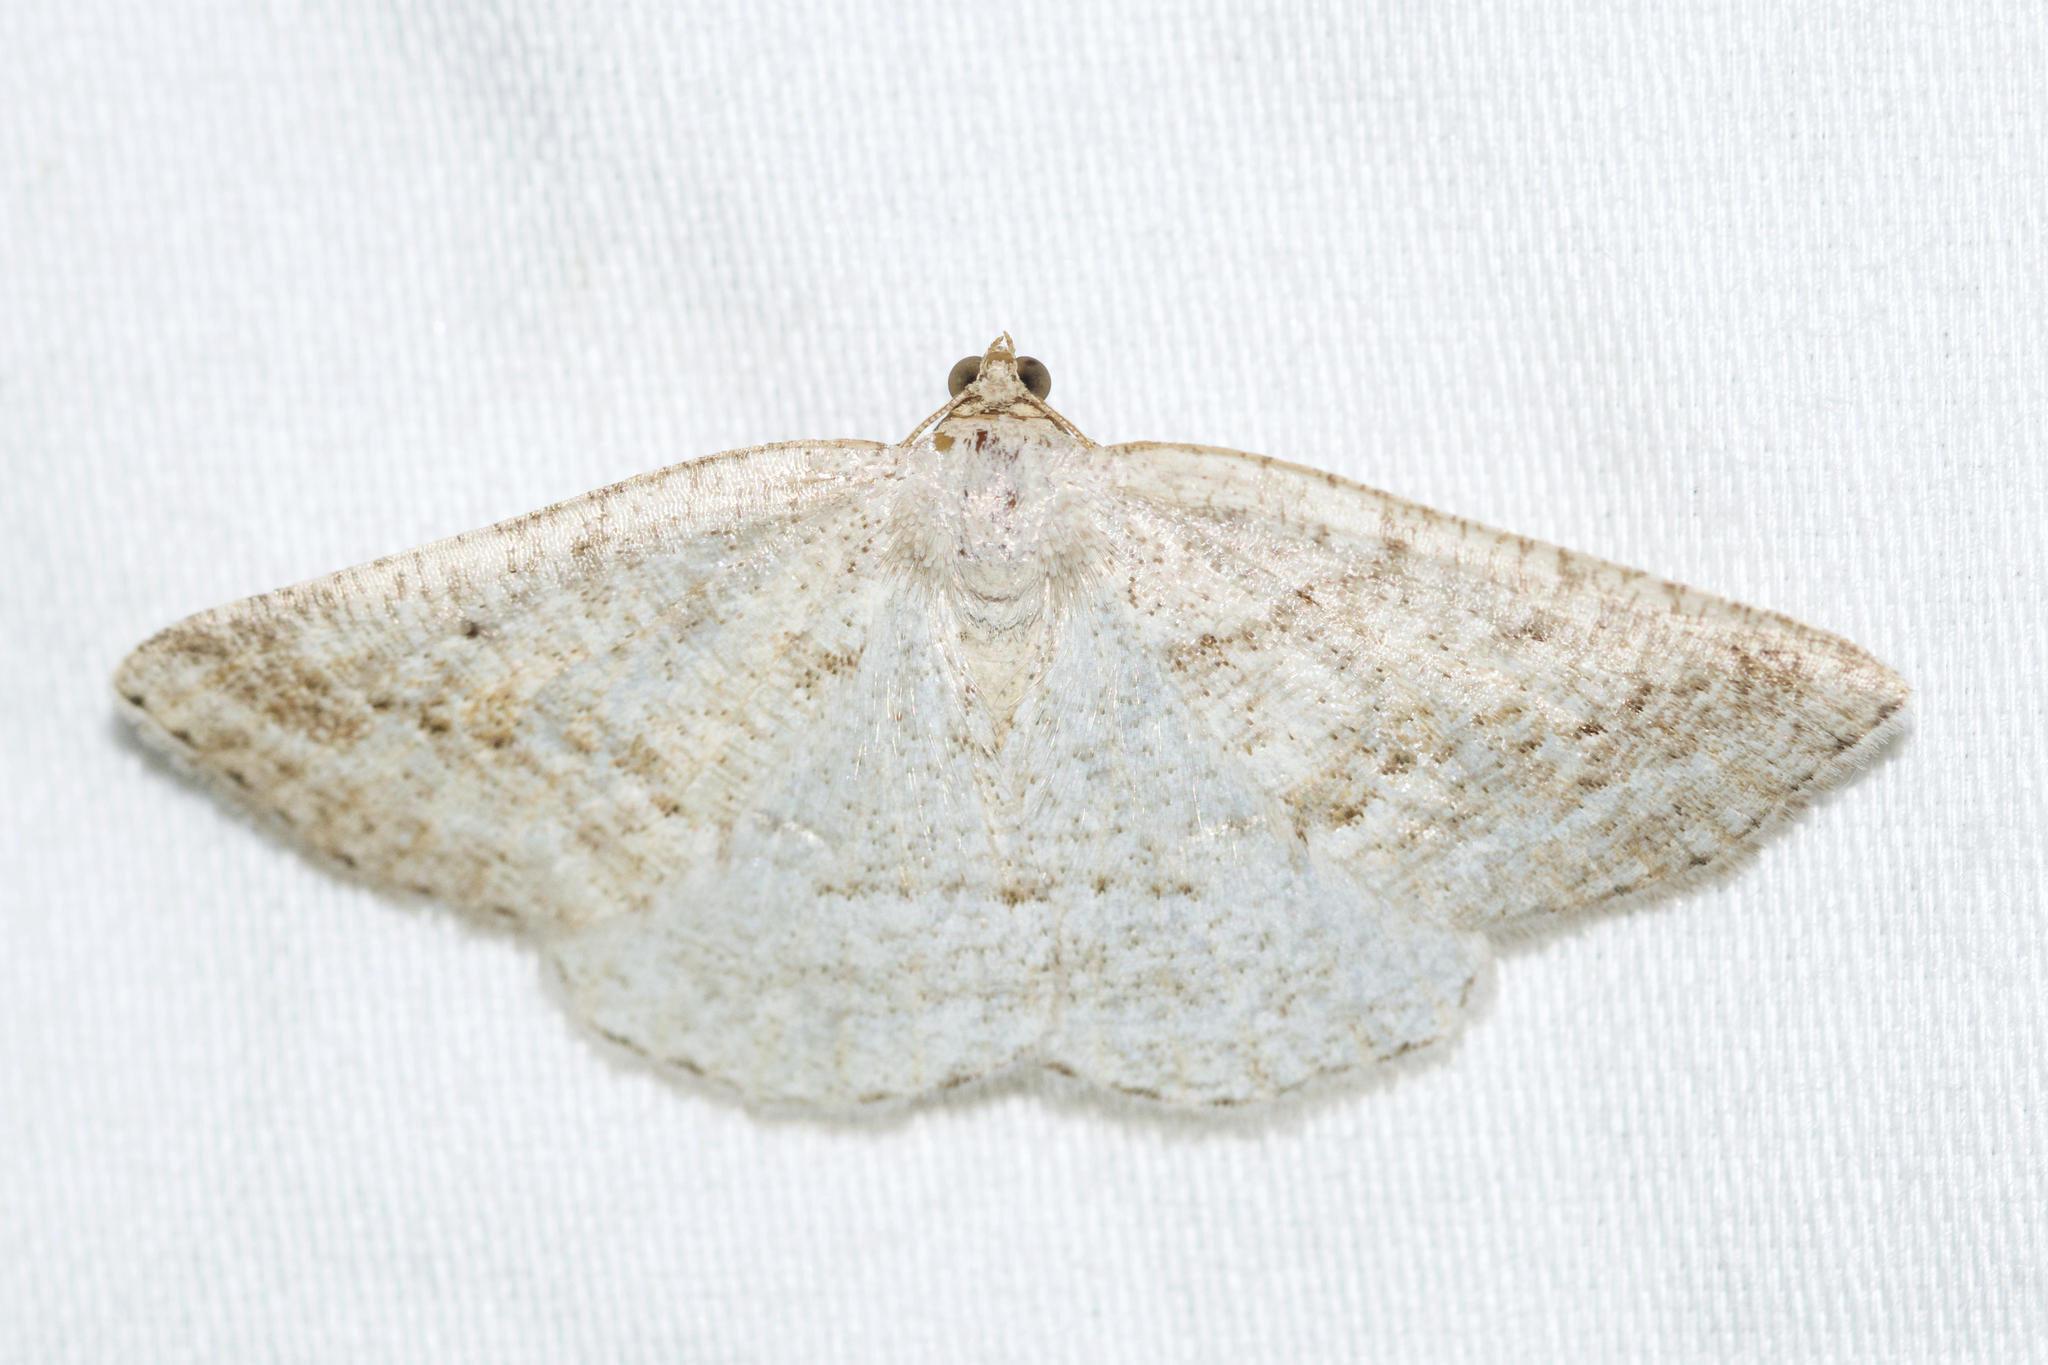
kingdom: Animalia
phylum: Arthropoda
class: Insecta
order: Lepidoptera
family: Geometridae
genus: Tacparia
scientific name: Tacparia detersata
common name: Pale alder moth
